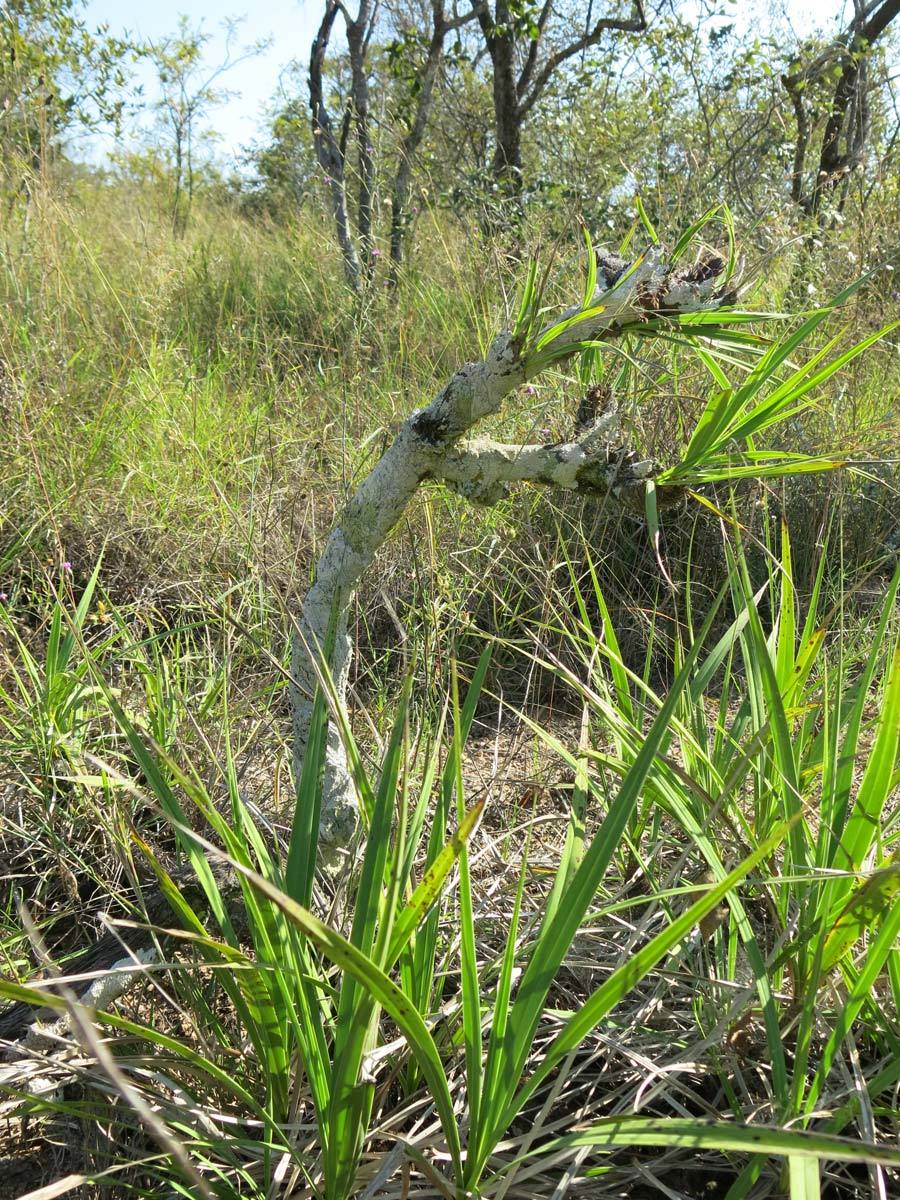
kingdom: Plantae
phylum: Tracheophyta
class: Liliopsida
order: Pandanales
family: Velloziaceae
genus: Xerophyta
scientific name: Xerophyta retinervis
